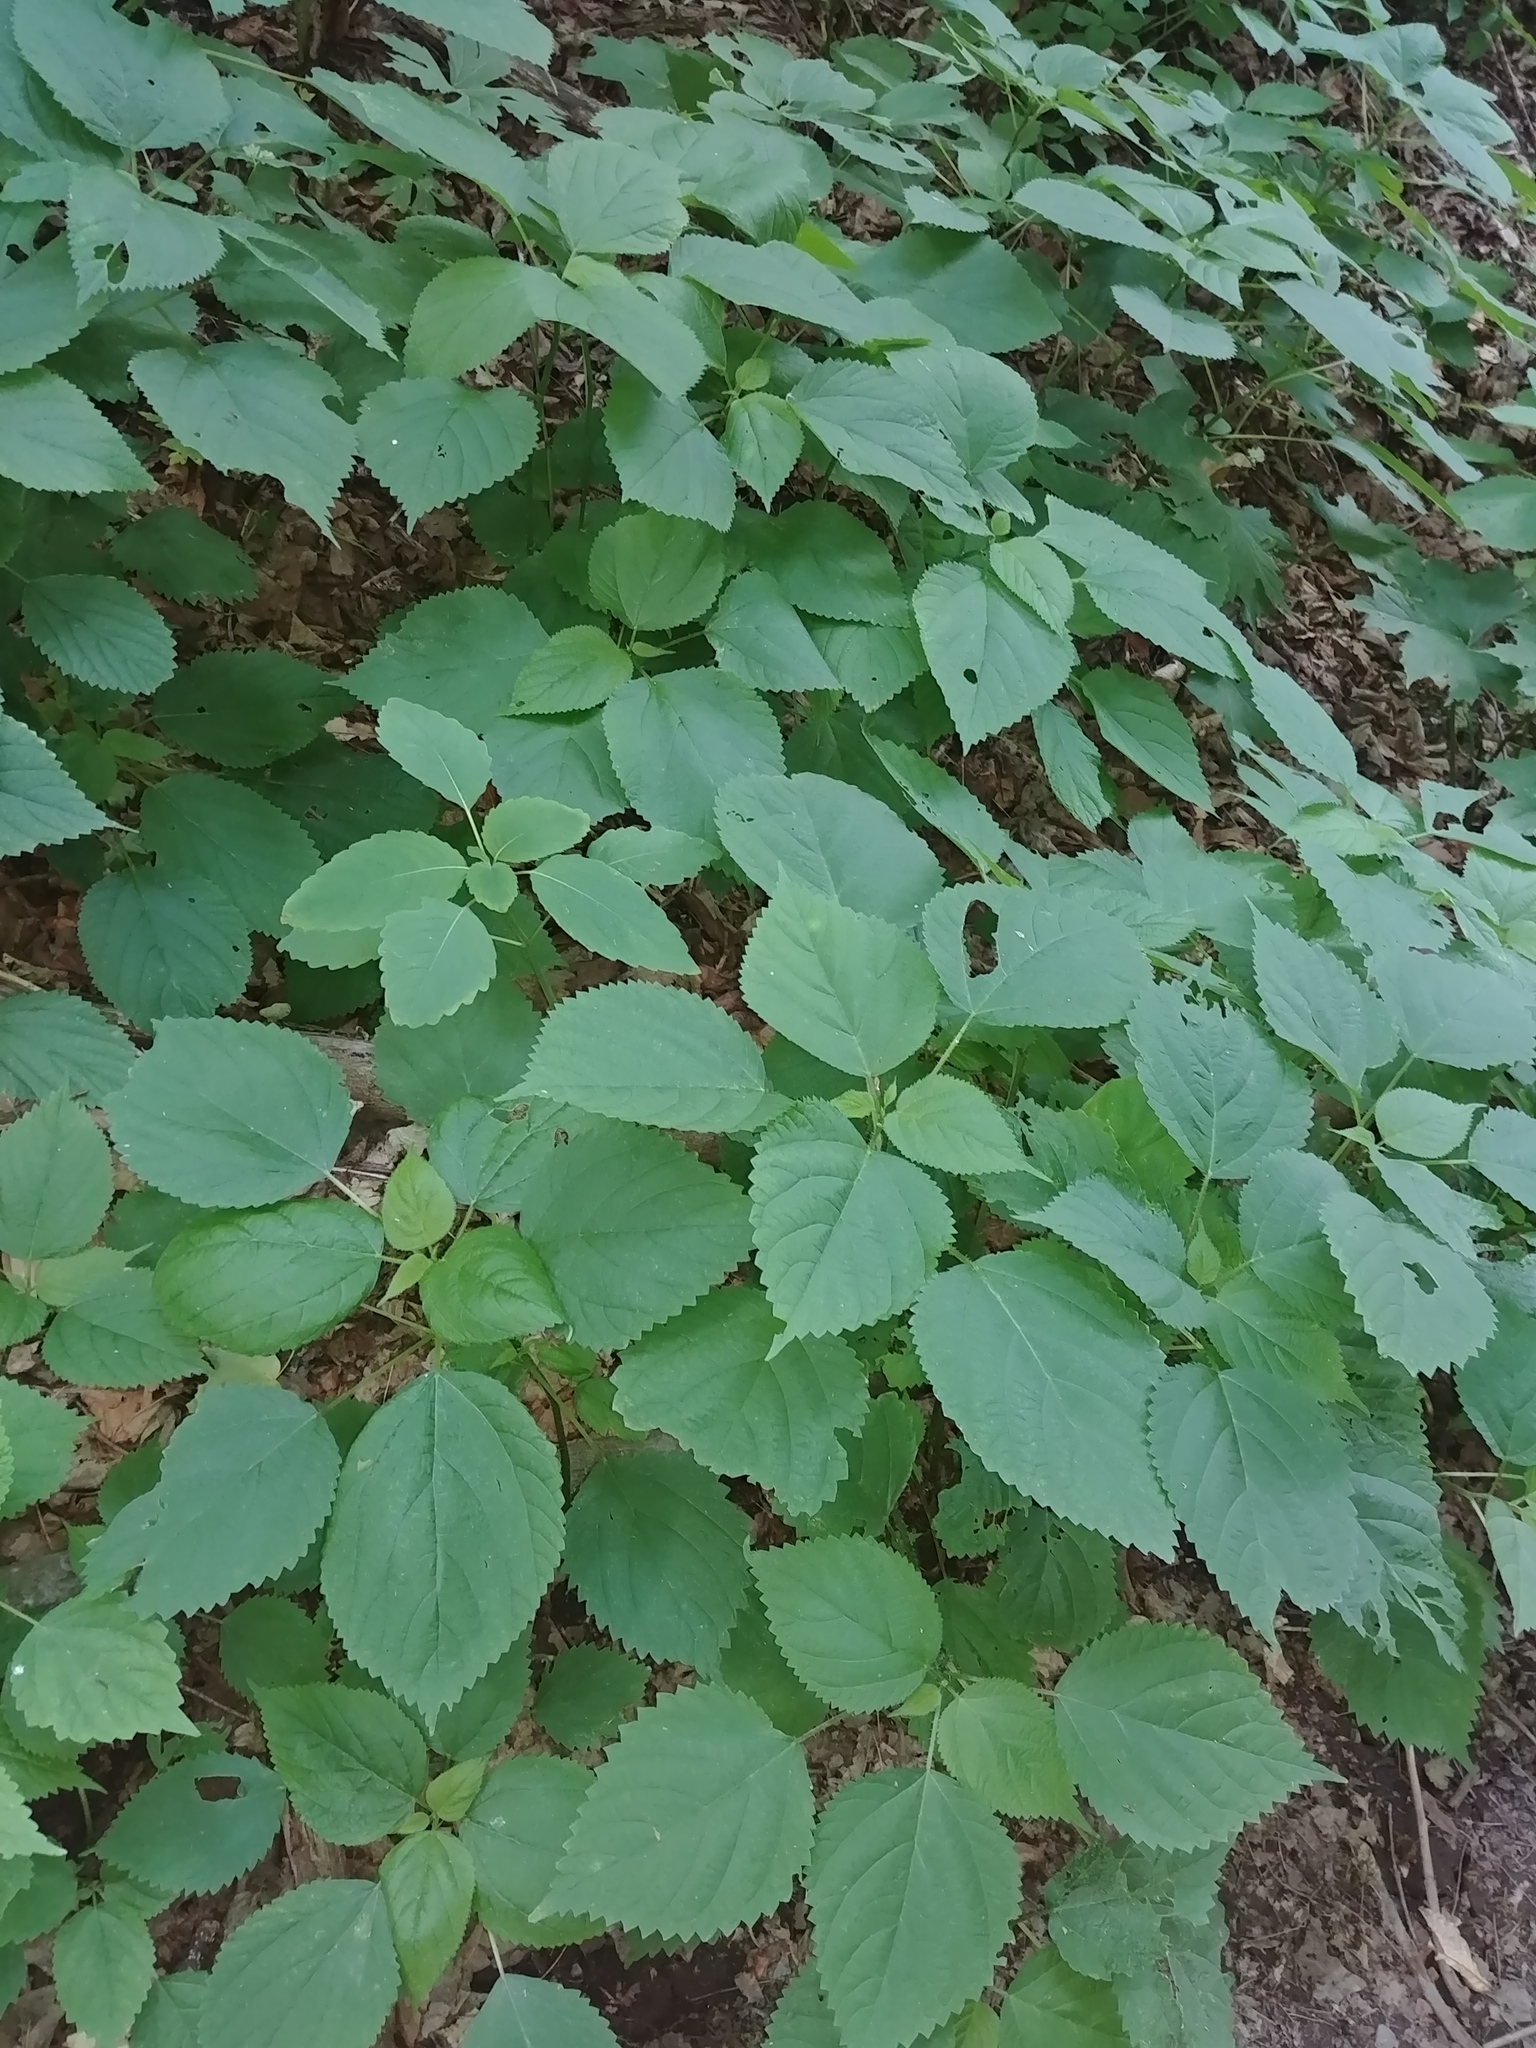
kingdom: Plantae
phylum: Tracheophyta
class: Magnoliopsida
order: Rosales
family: Urticaceae
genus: Laportea
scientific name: Laportea canadensis
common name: Canada nettle
